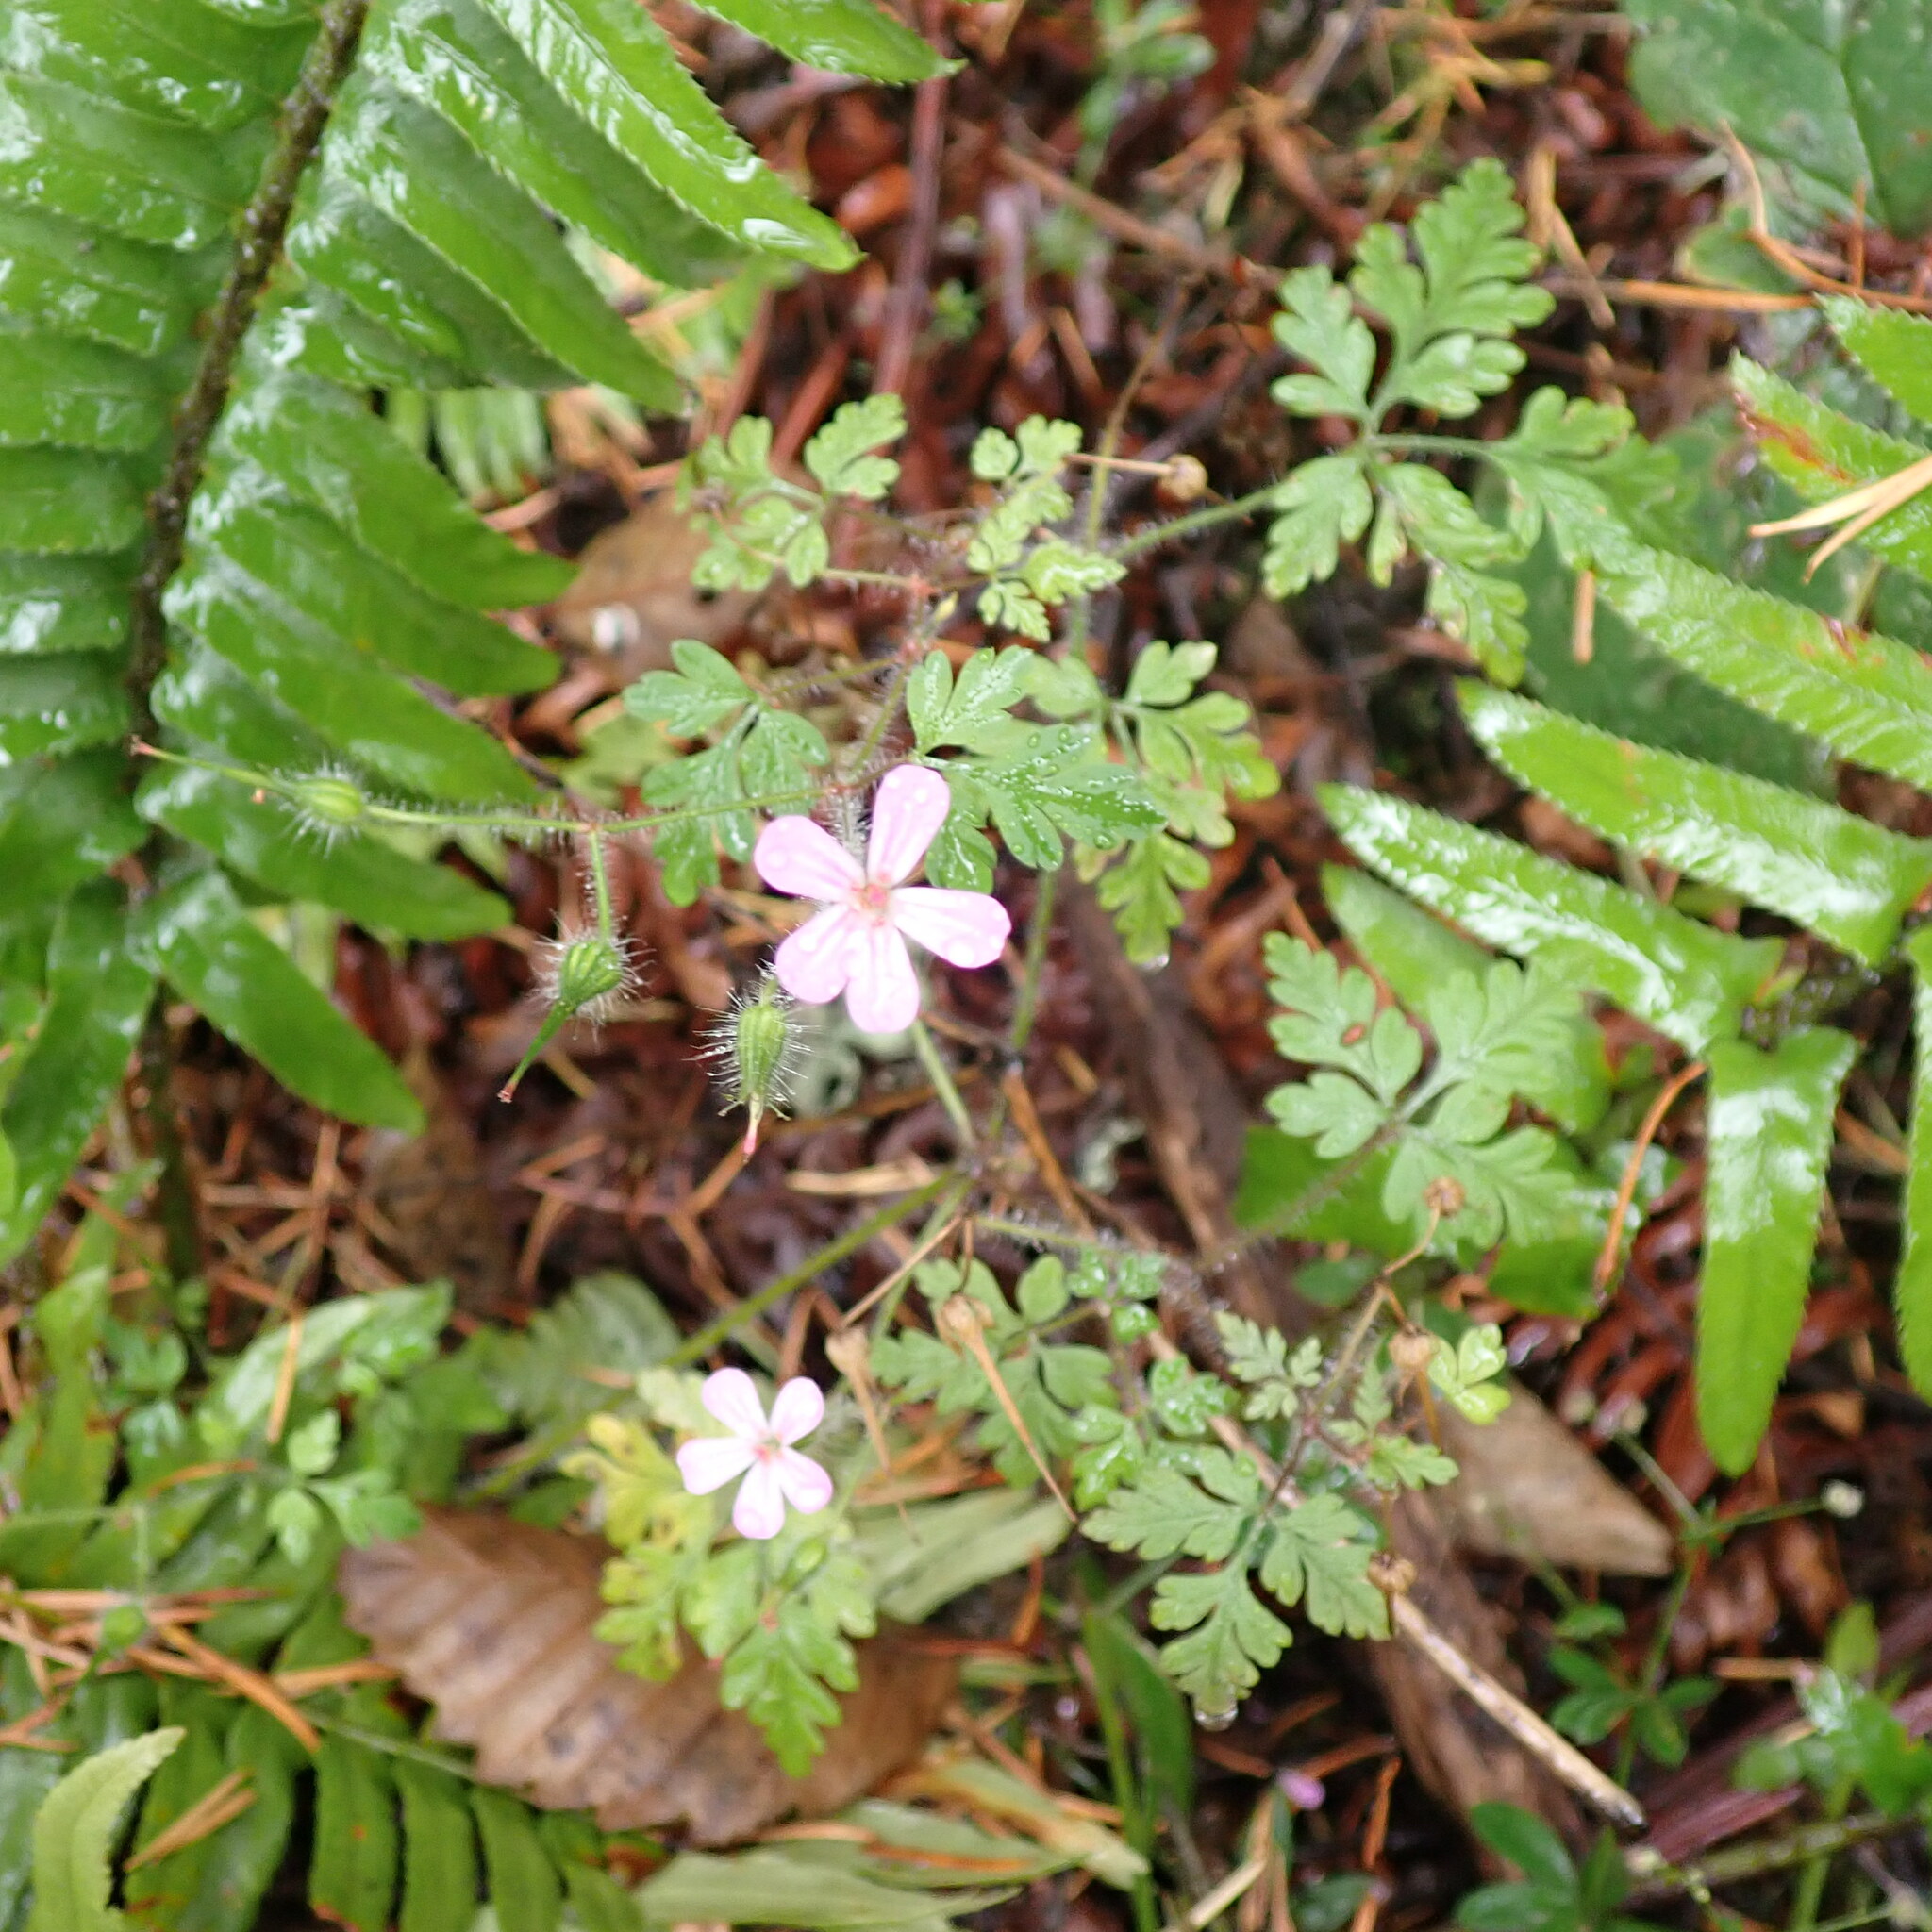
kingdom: Plantae
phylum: Tracheophyta
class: Magnoliopsida
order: Geraniales
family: Geraniaceae
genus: Geranium
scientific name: Geranium robertianum
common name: Herb-robert
